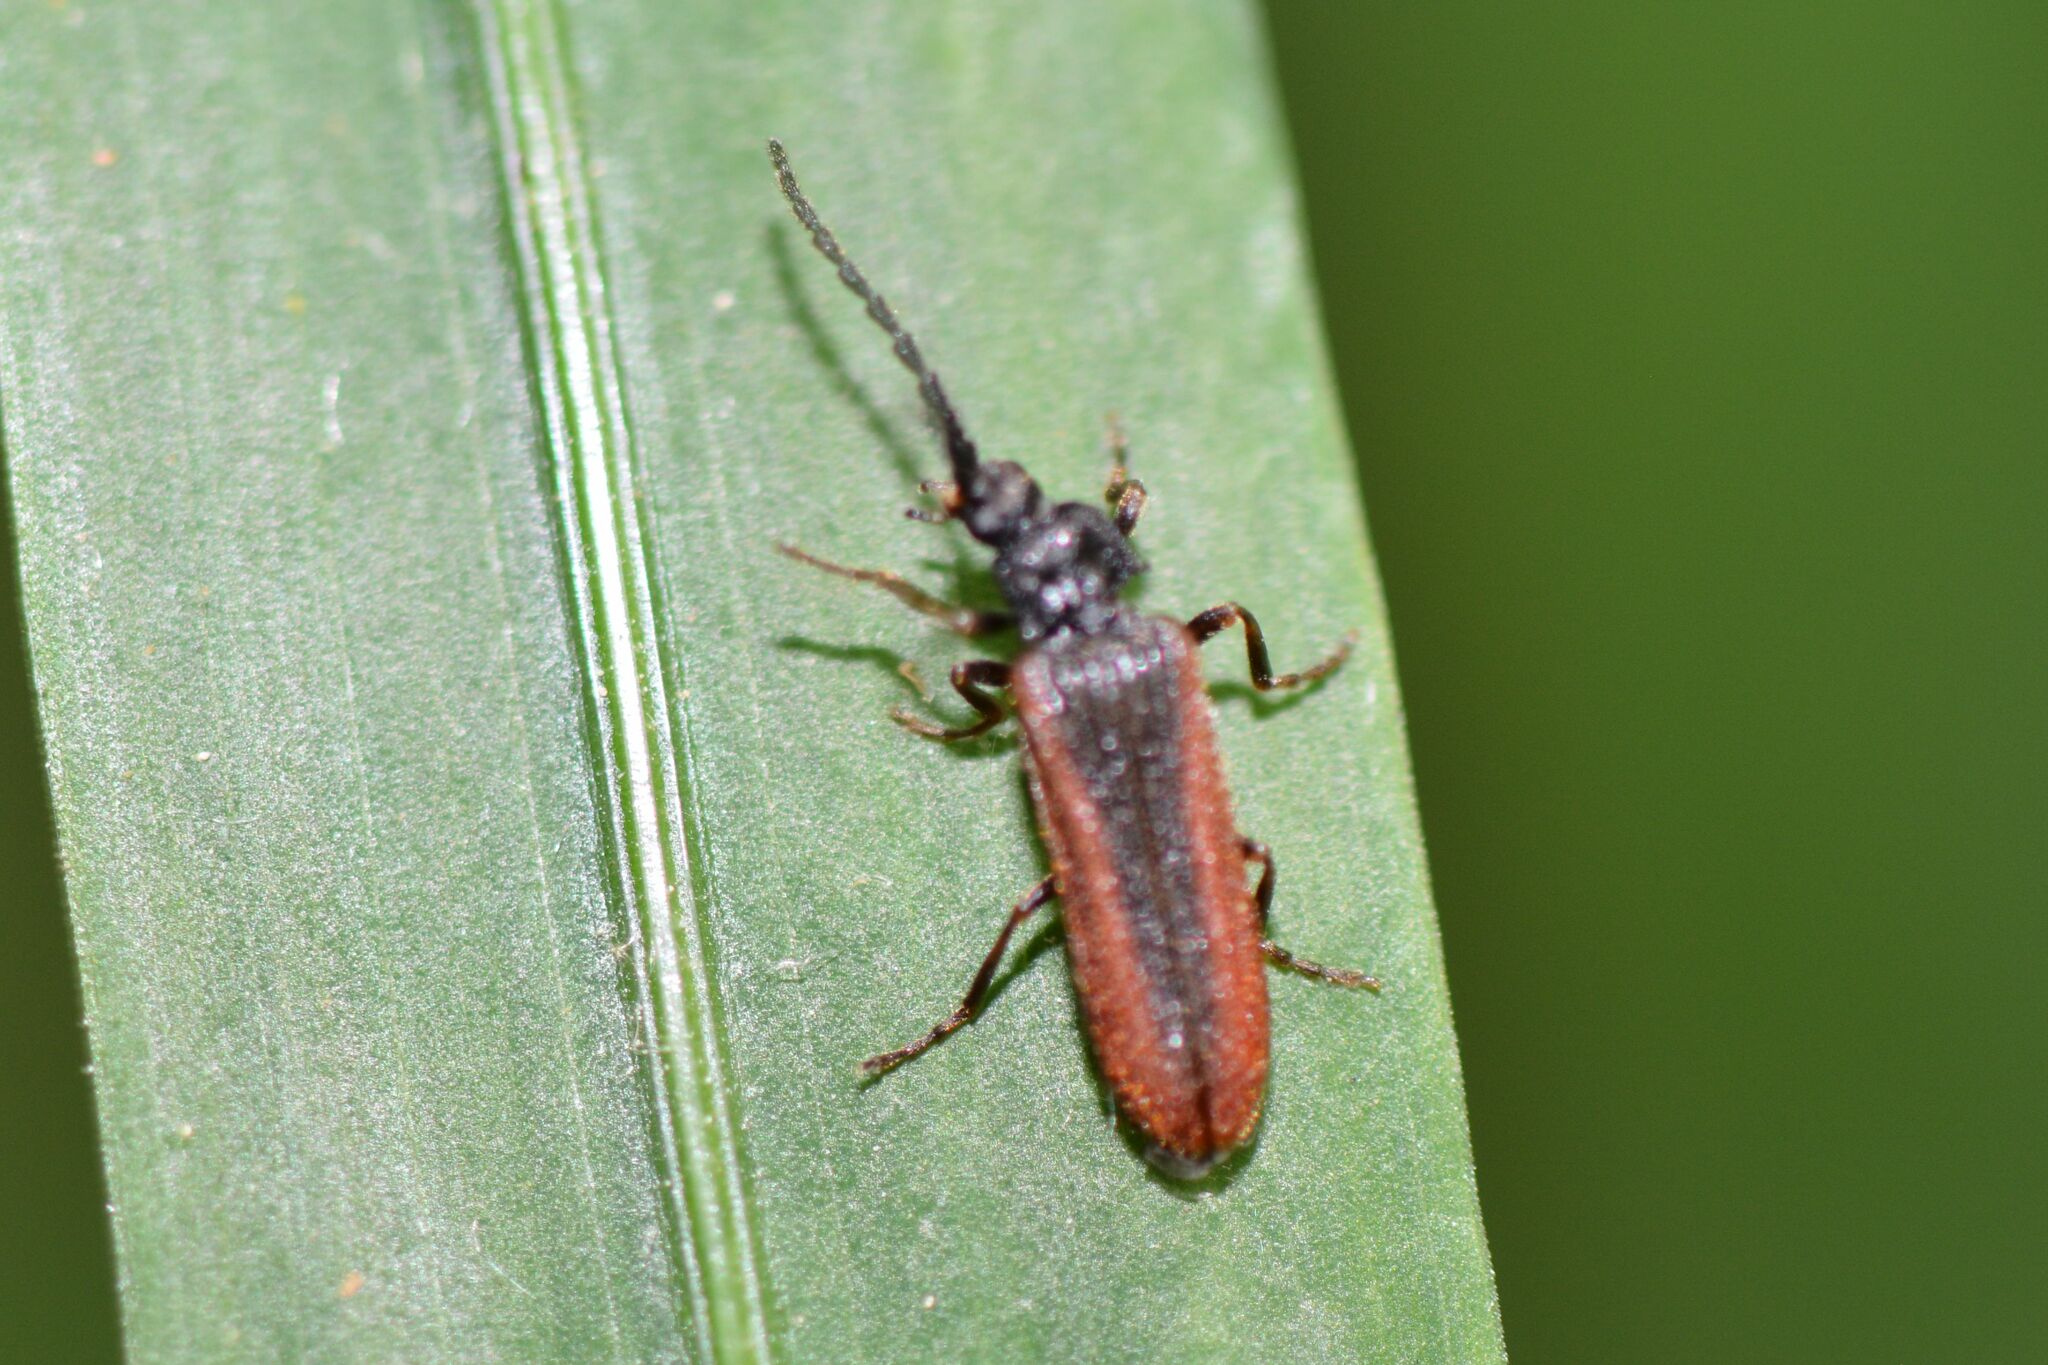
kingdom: Animalia
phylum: Arthropoda
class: Insecta
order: Coleoptera
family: Omalisidae
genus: Omalisus
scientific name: Omalisus fontisbellaquei
